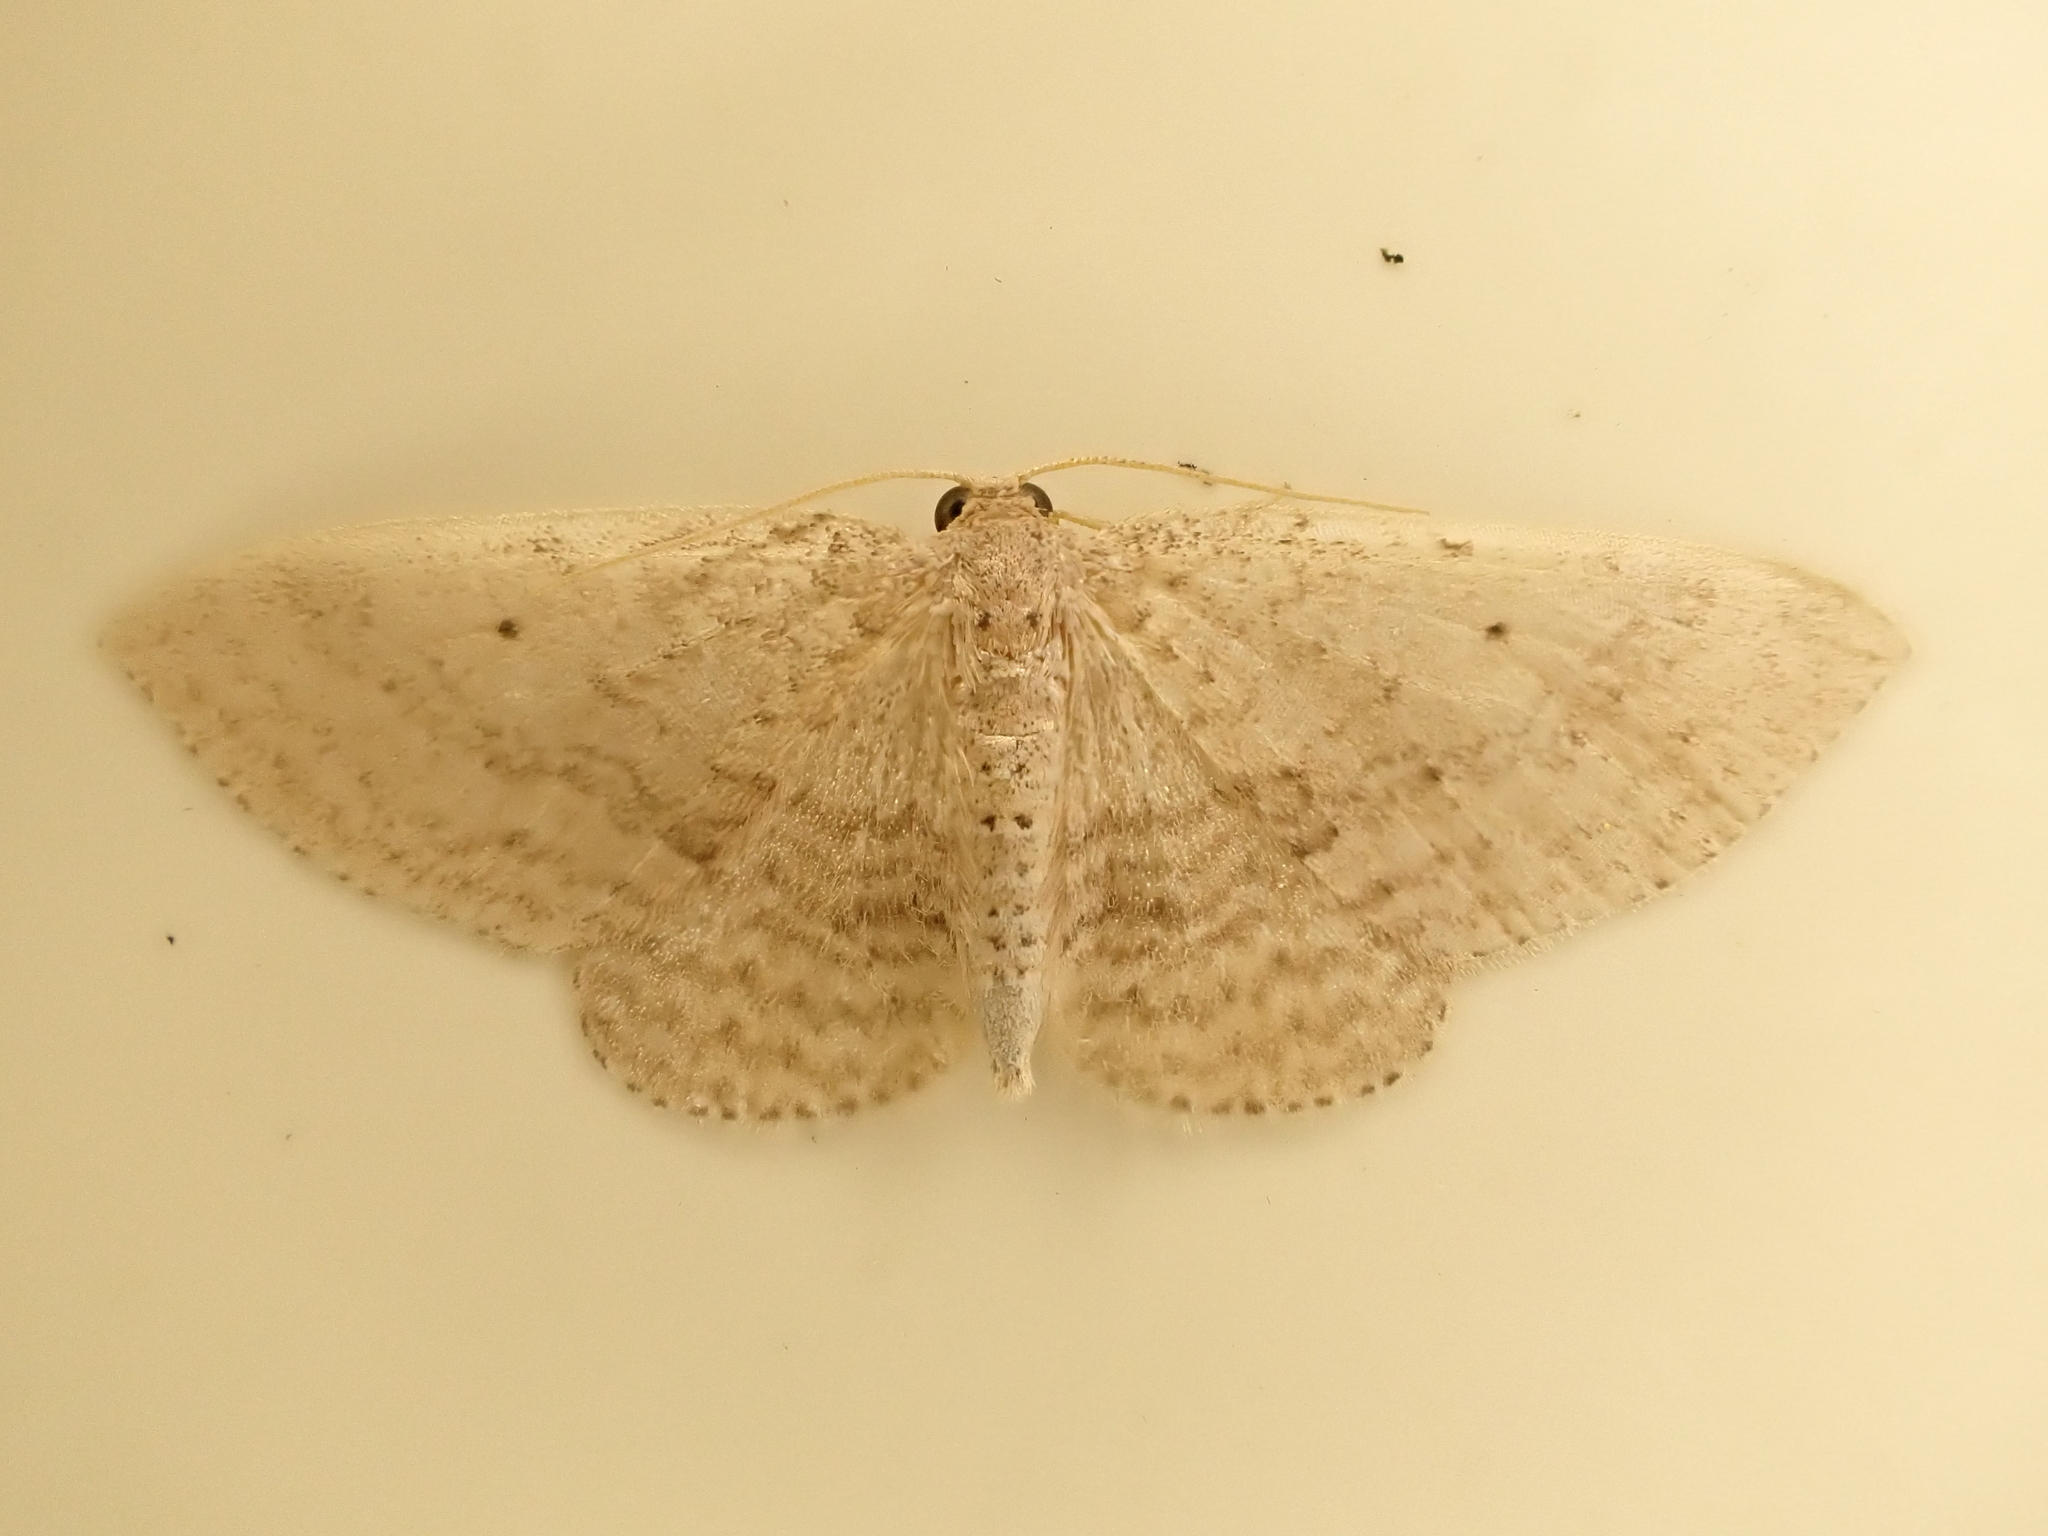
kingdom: Animalia
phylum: Arthropoda
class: Insecta
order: Lepidoptera
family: Geometridae
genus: Poecilasthena
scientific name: Poecilasthena schistaria
